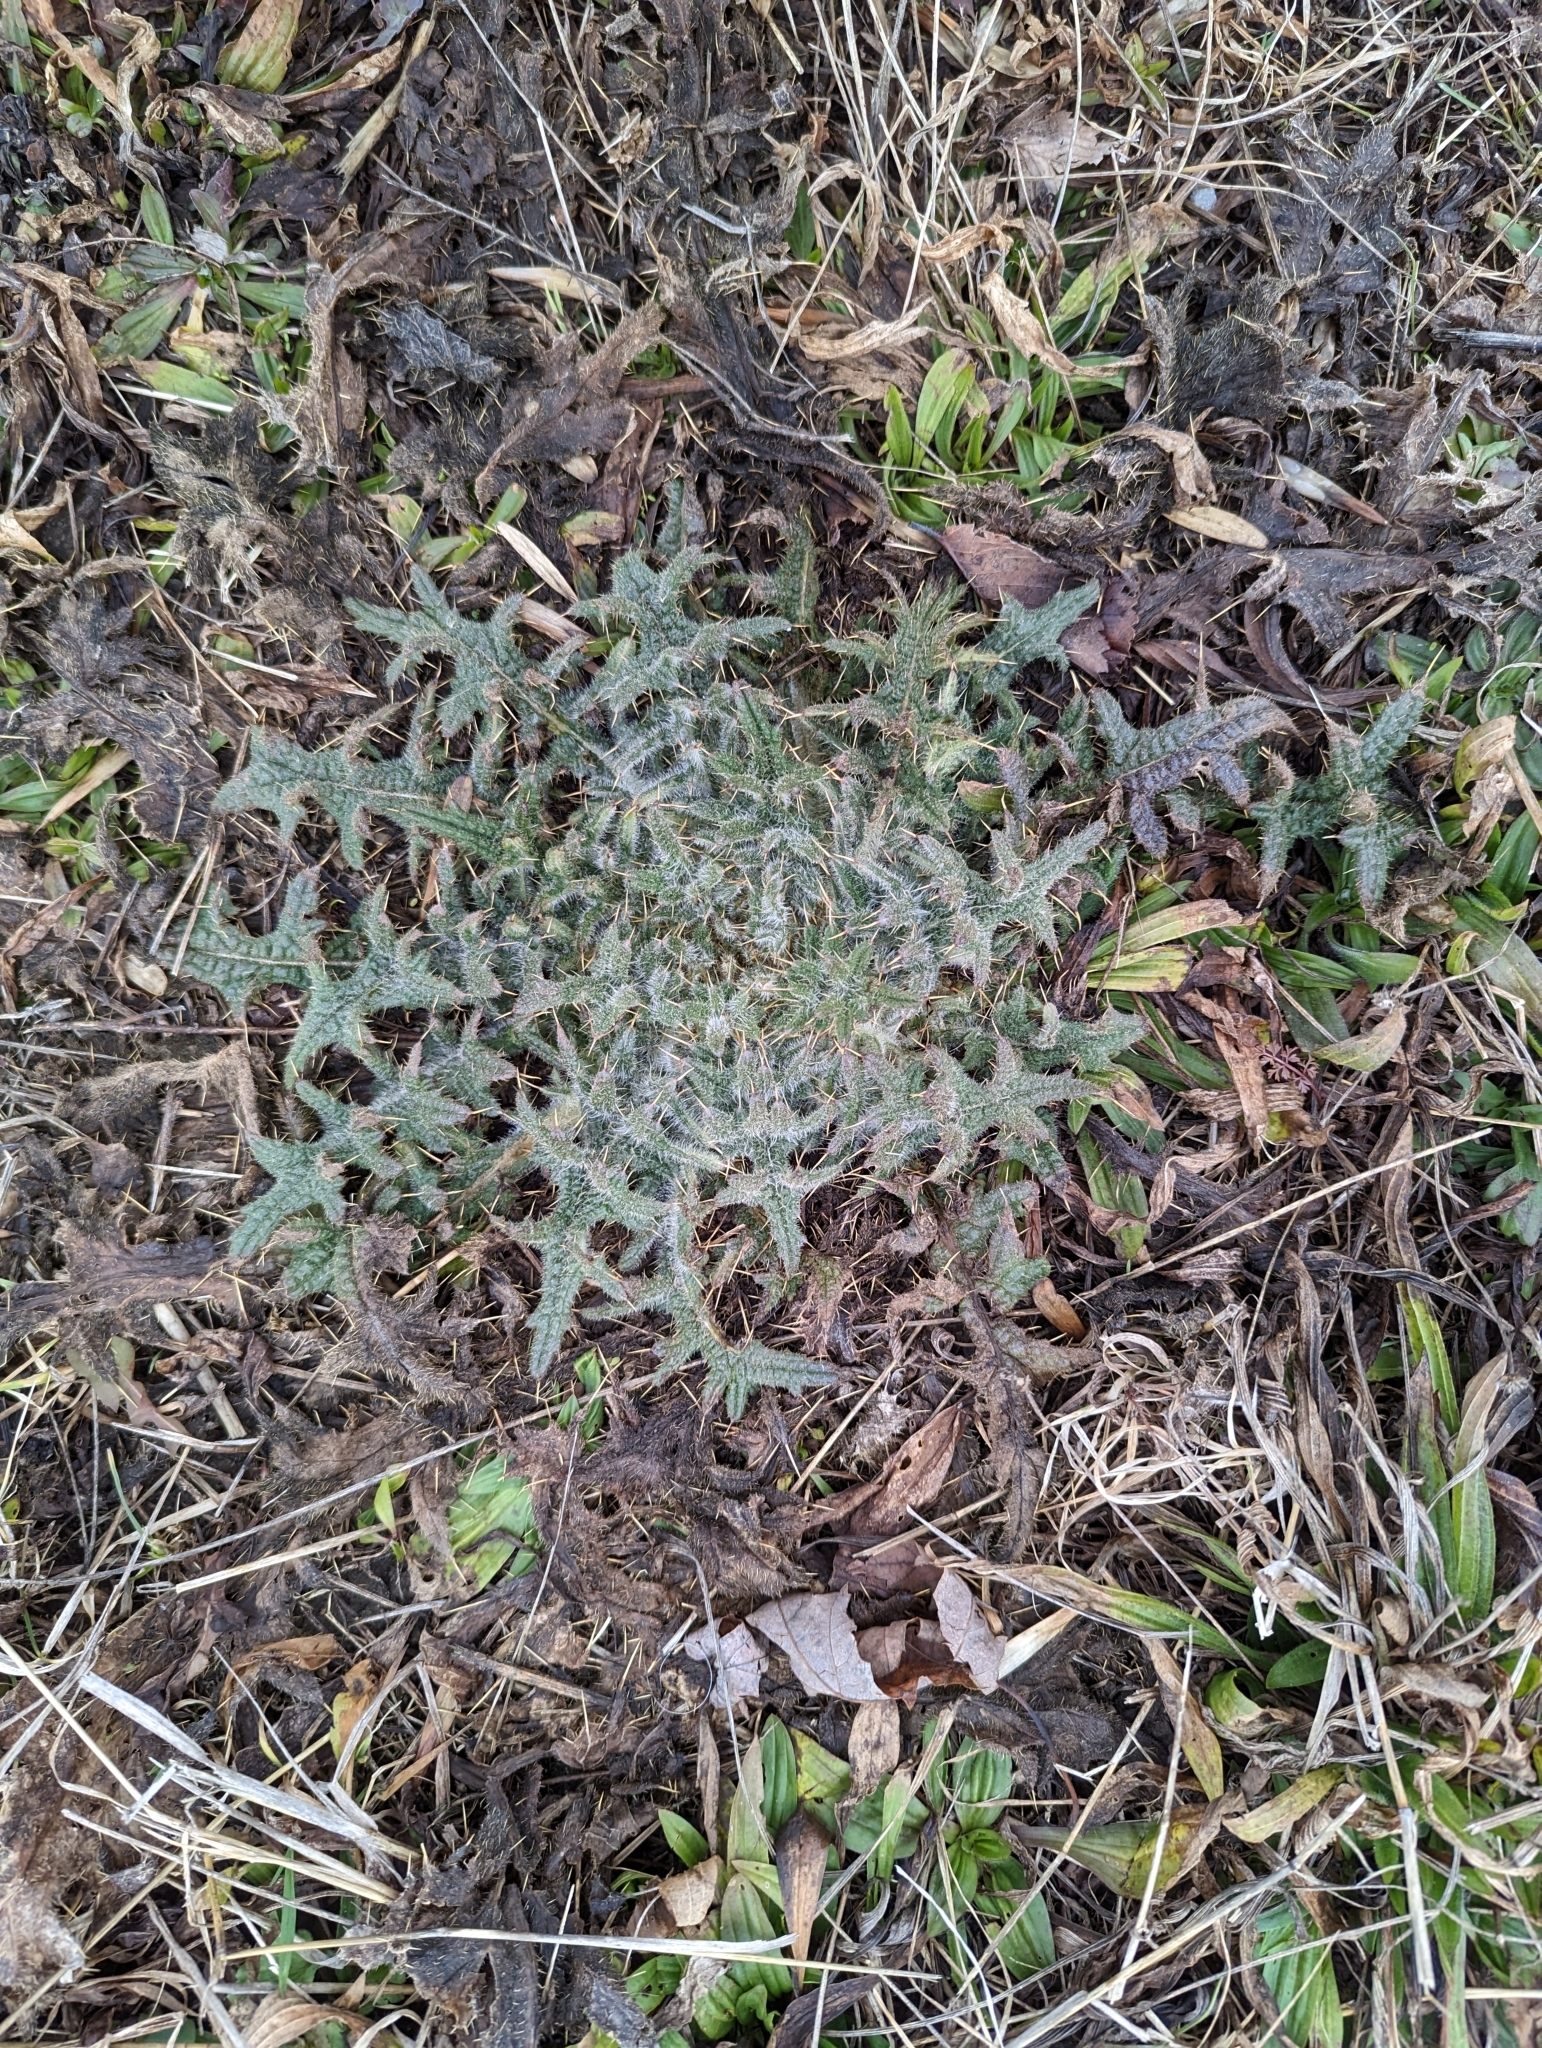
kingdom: Plantae
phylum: Tracheophyta
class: Magnoliopsida
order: Asterales
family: Asteraceae
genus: Cirsium
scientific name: Cirsium vulgare
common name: Bull thistle
